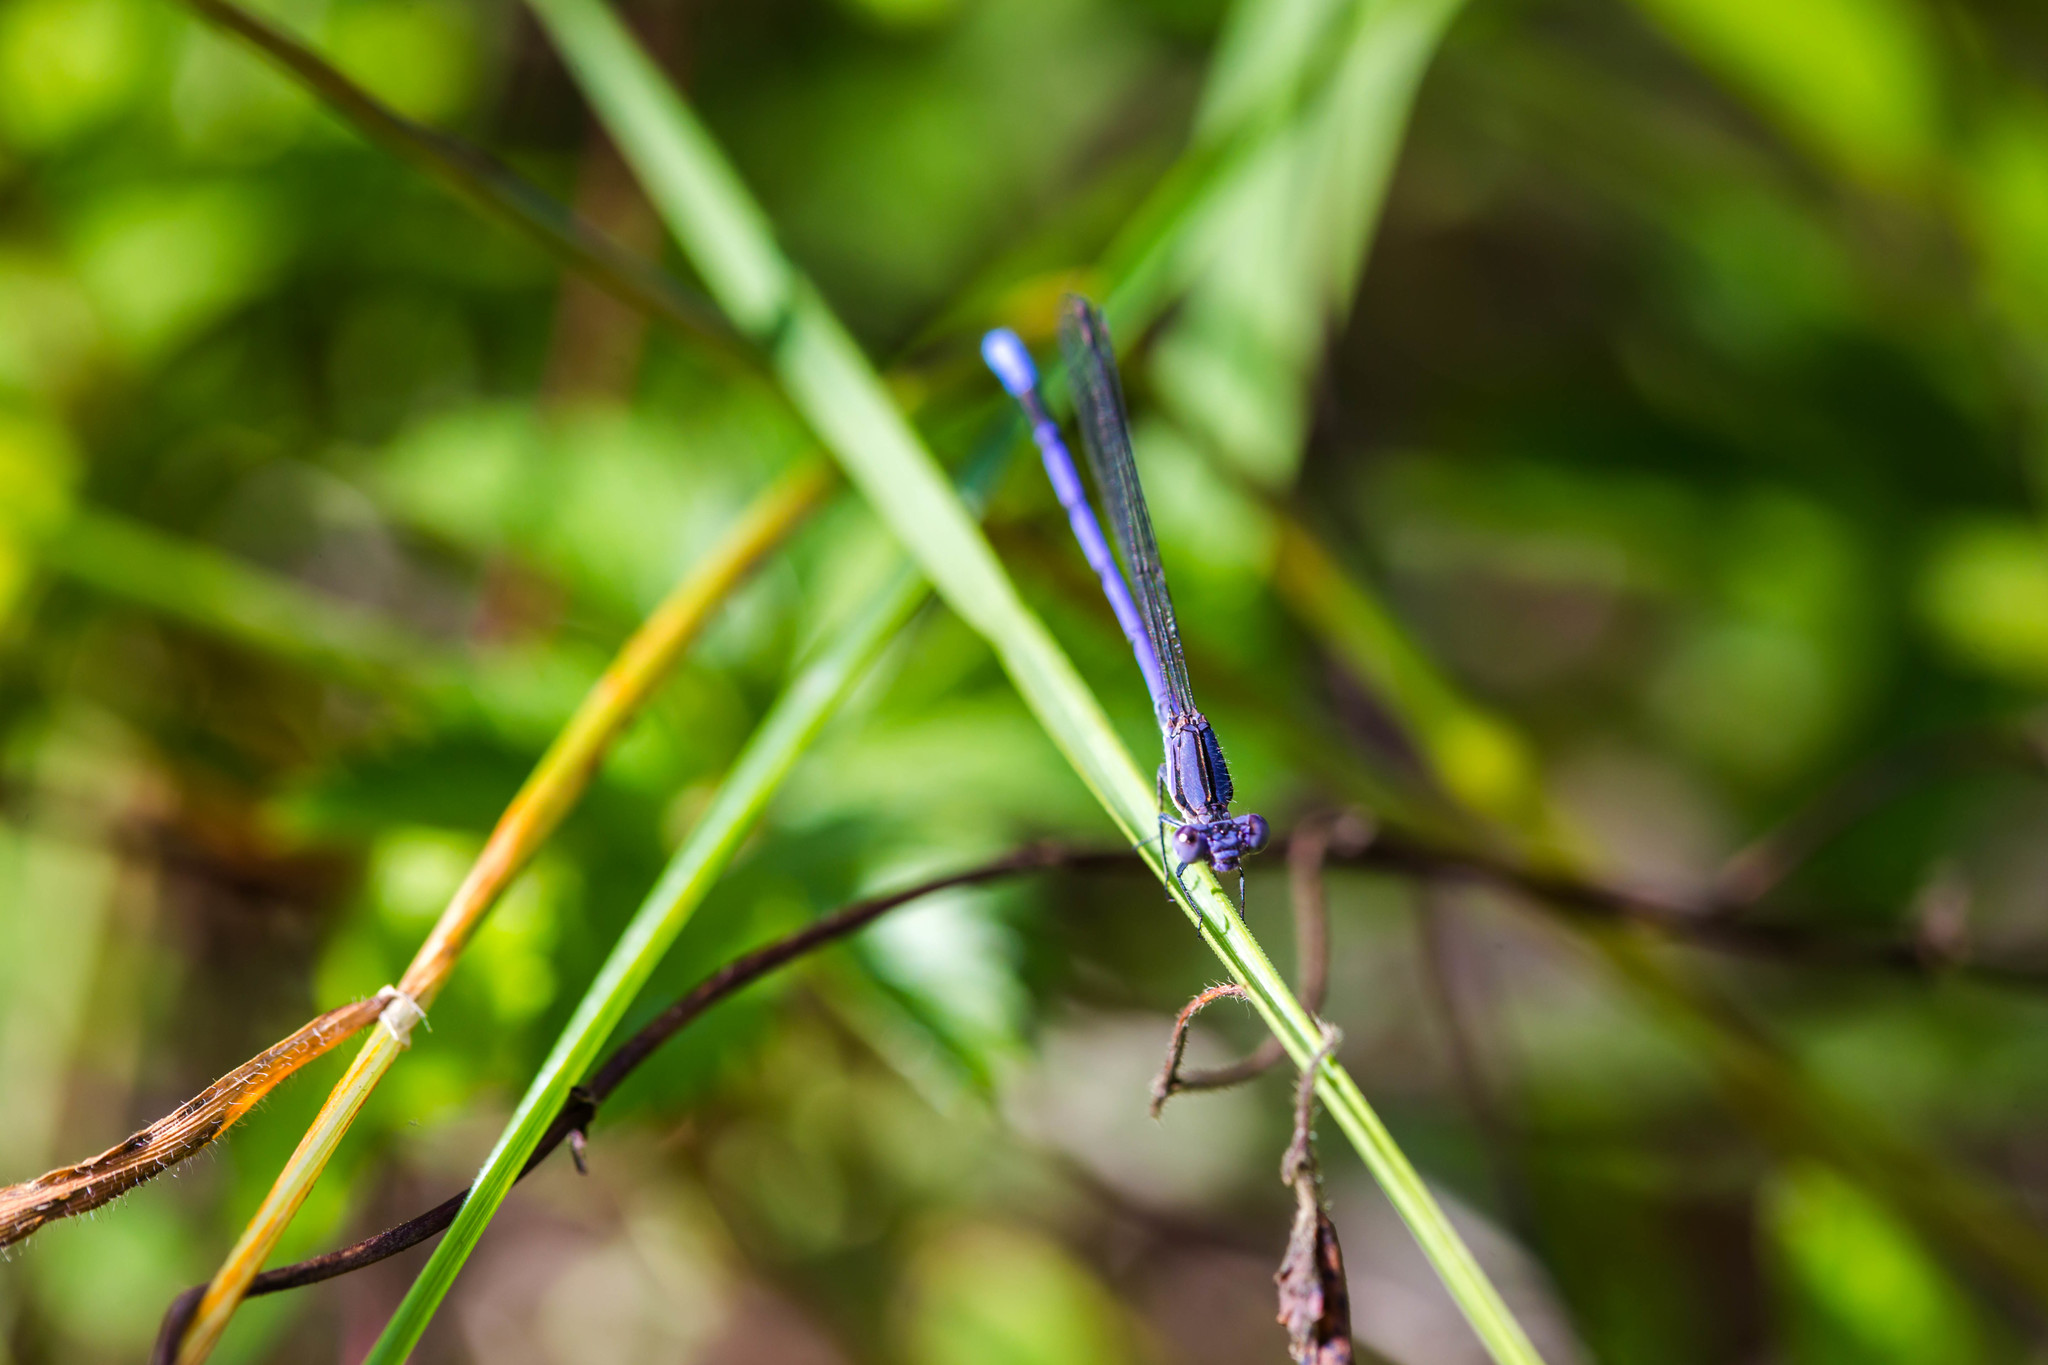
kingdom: Animalia
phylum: Arthropoda
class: Insecta
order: Odonata
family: Coenagrionidae
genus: Argia
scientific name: Argia fumipennis
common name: Variable dancer
